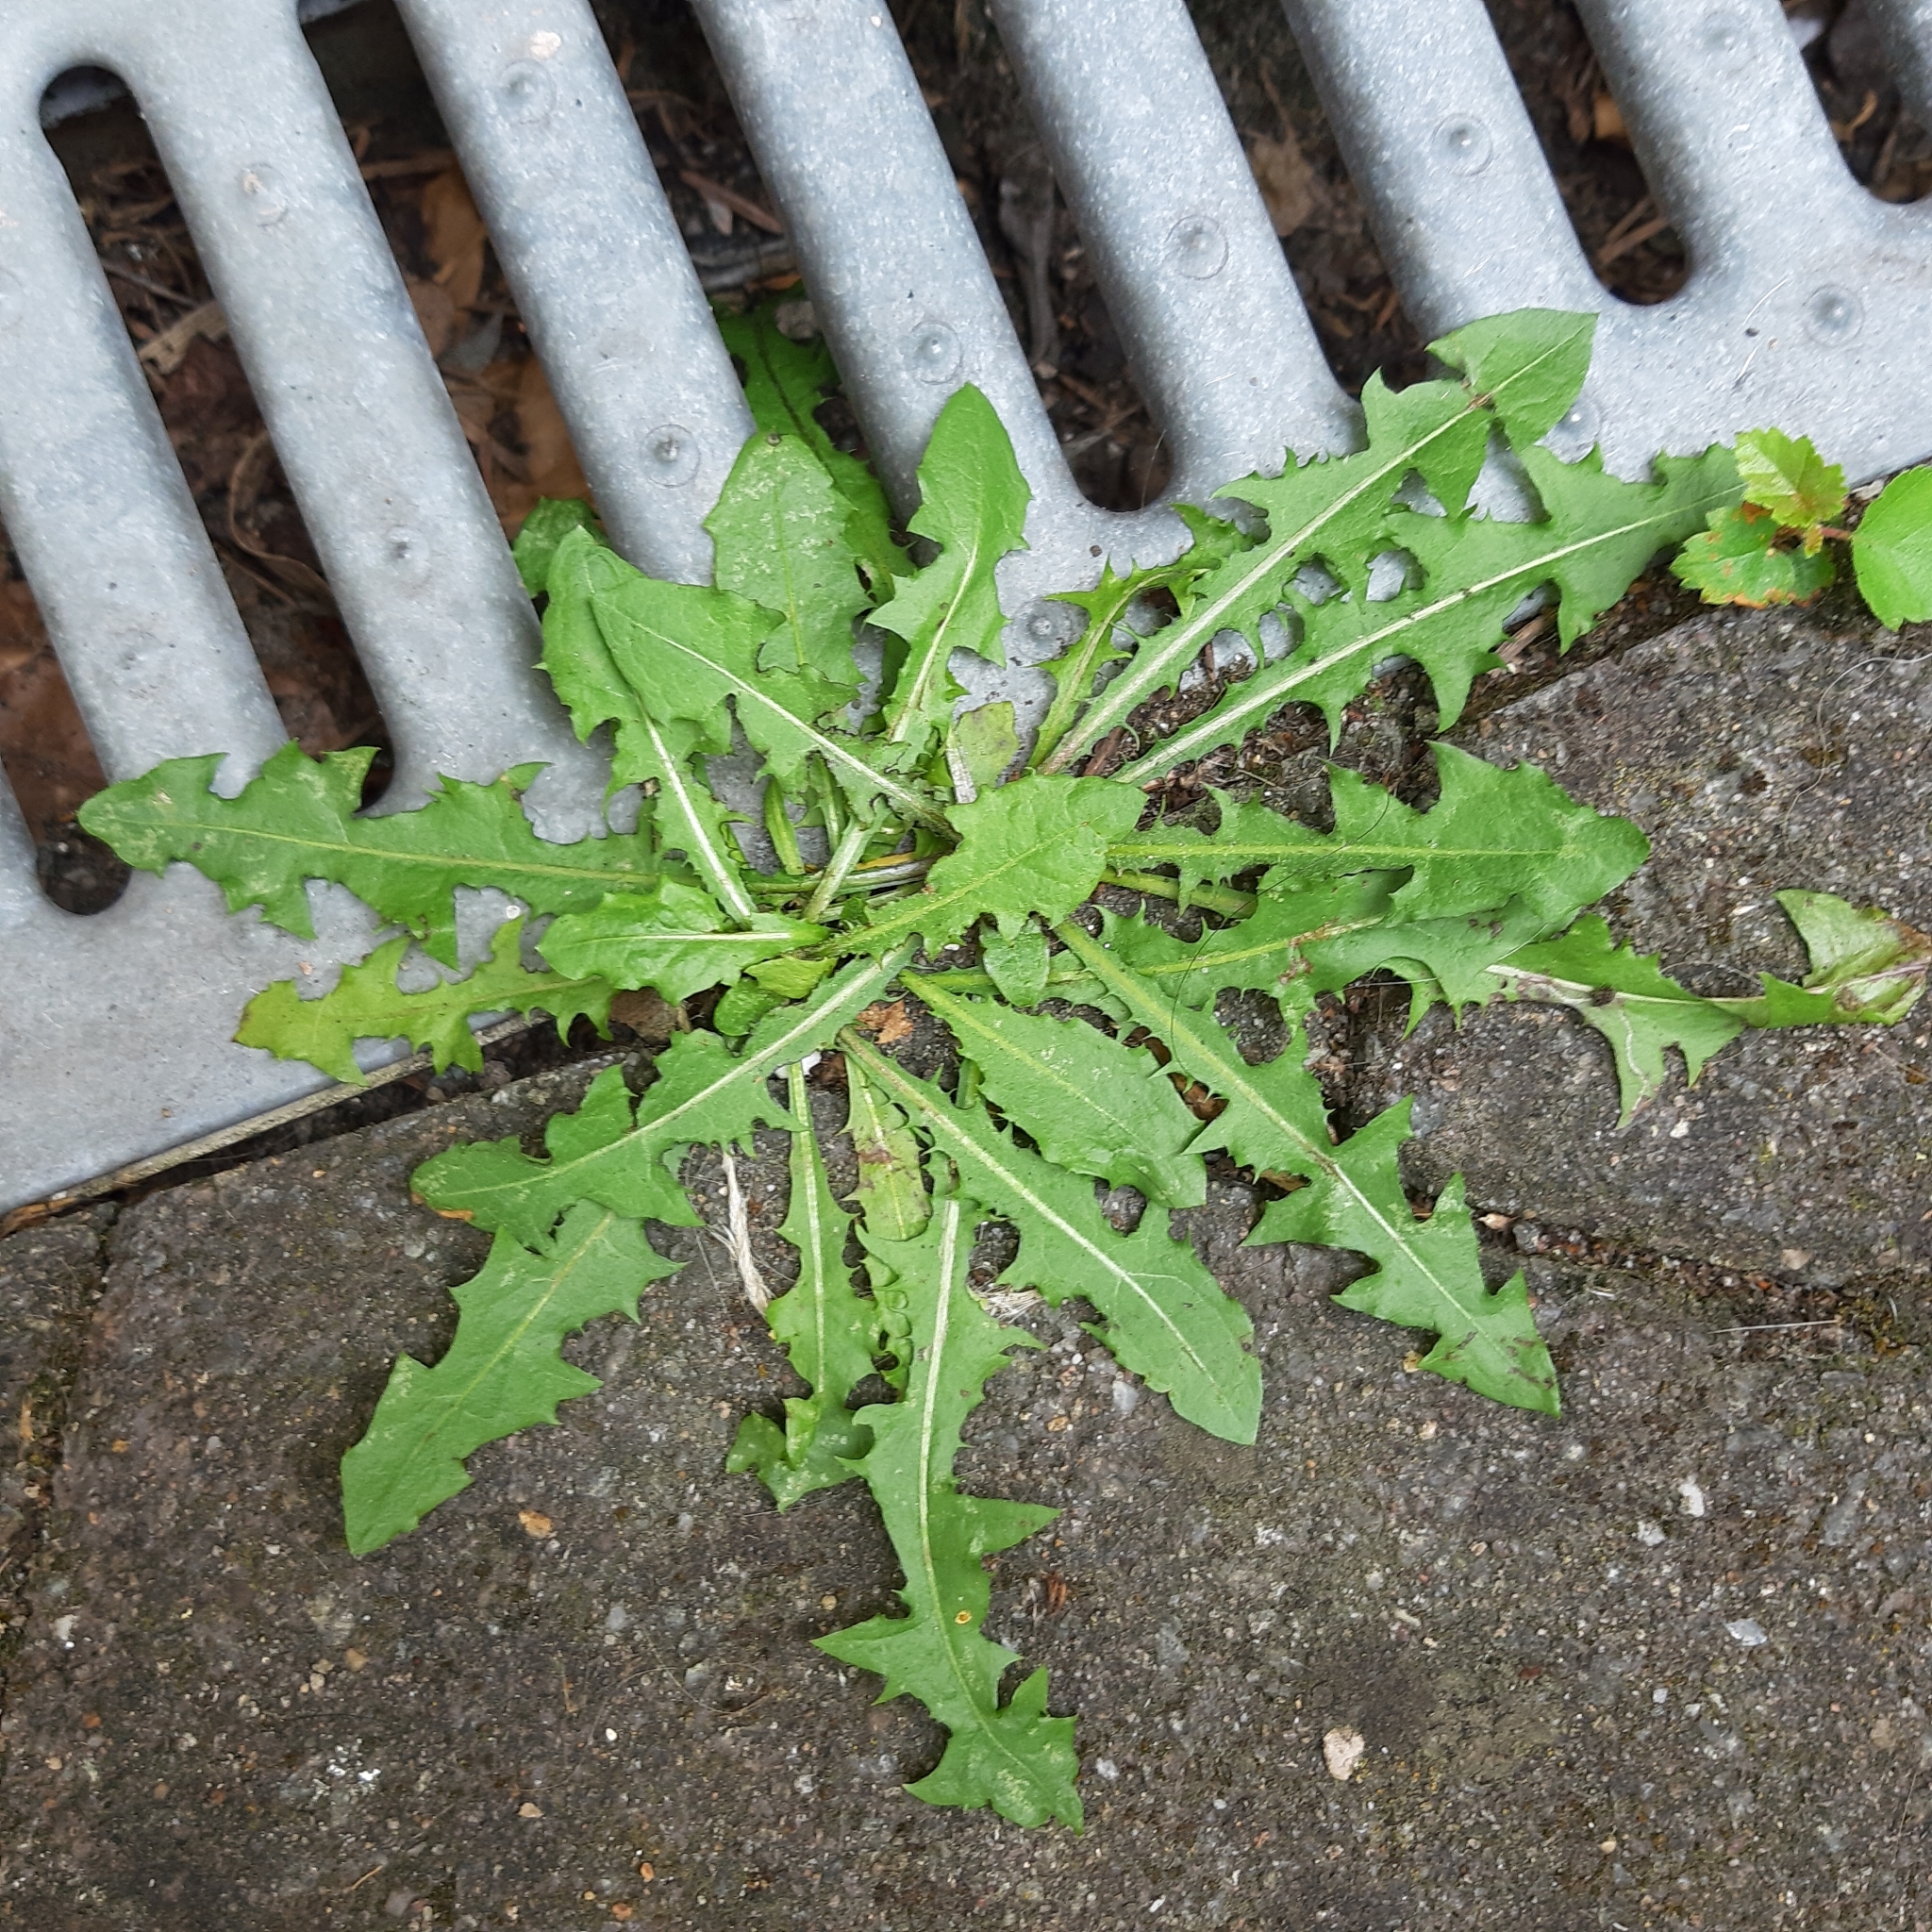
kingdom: Plantae
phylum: Tracheophyta
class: Magnoliopsida
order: Asterales
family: Asteraceae
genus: Taraxacum
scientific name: Taraxacum officinale
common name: Common dandelion
